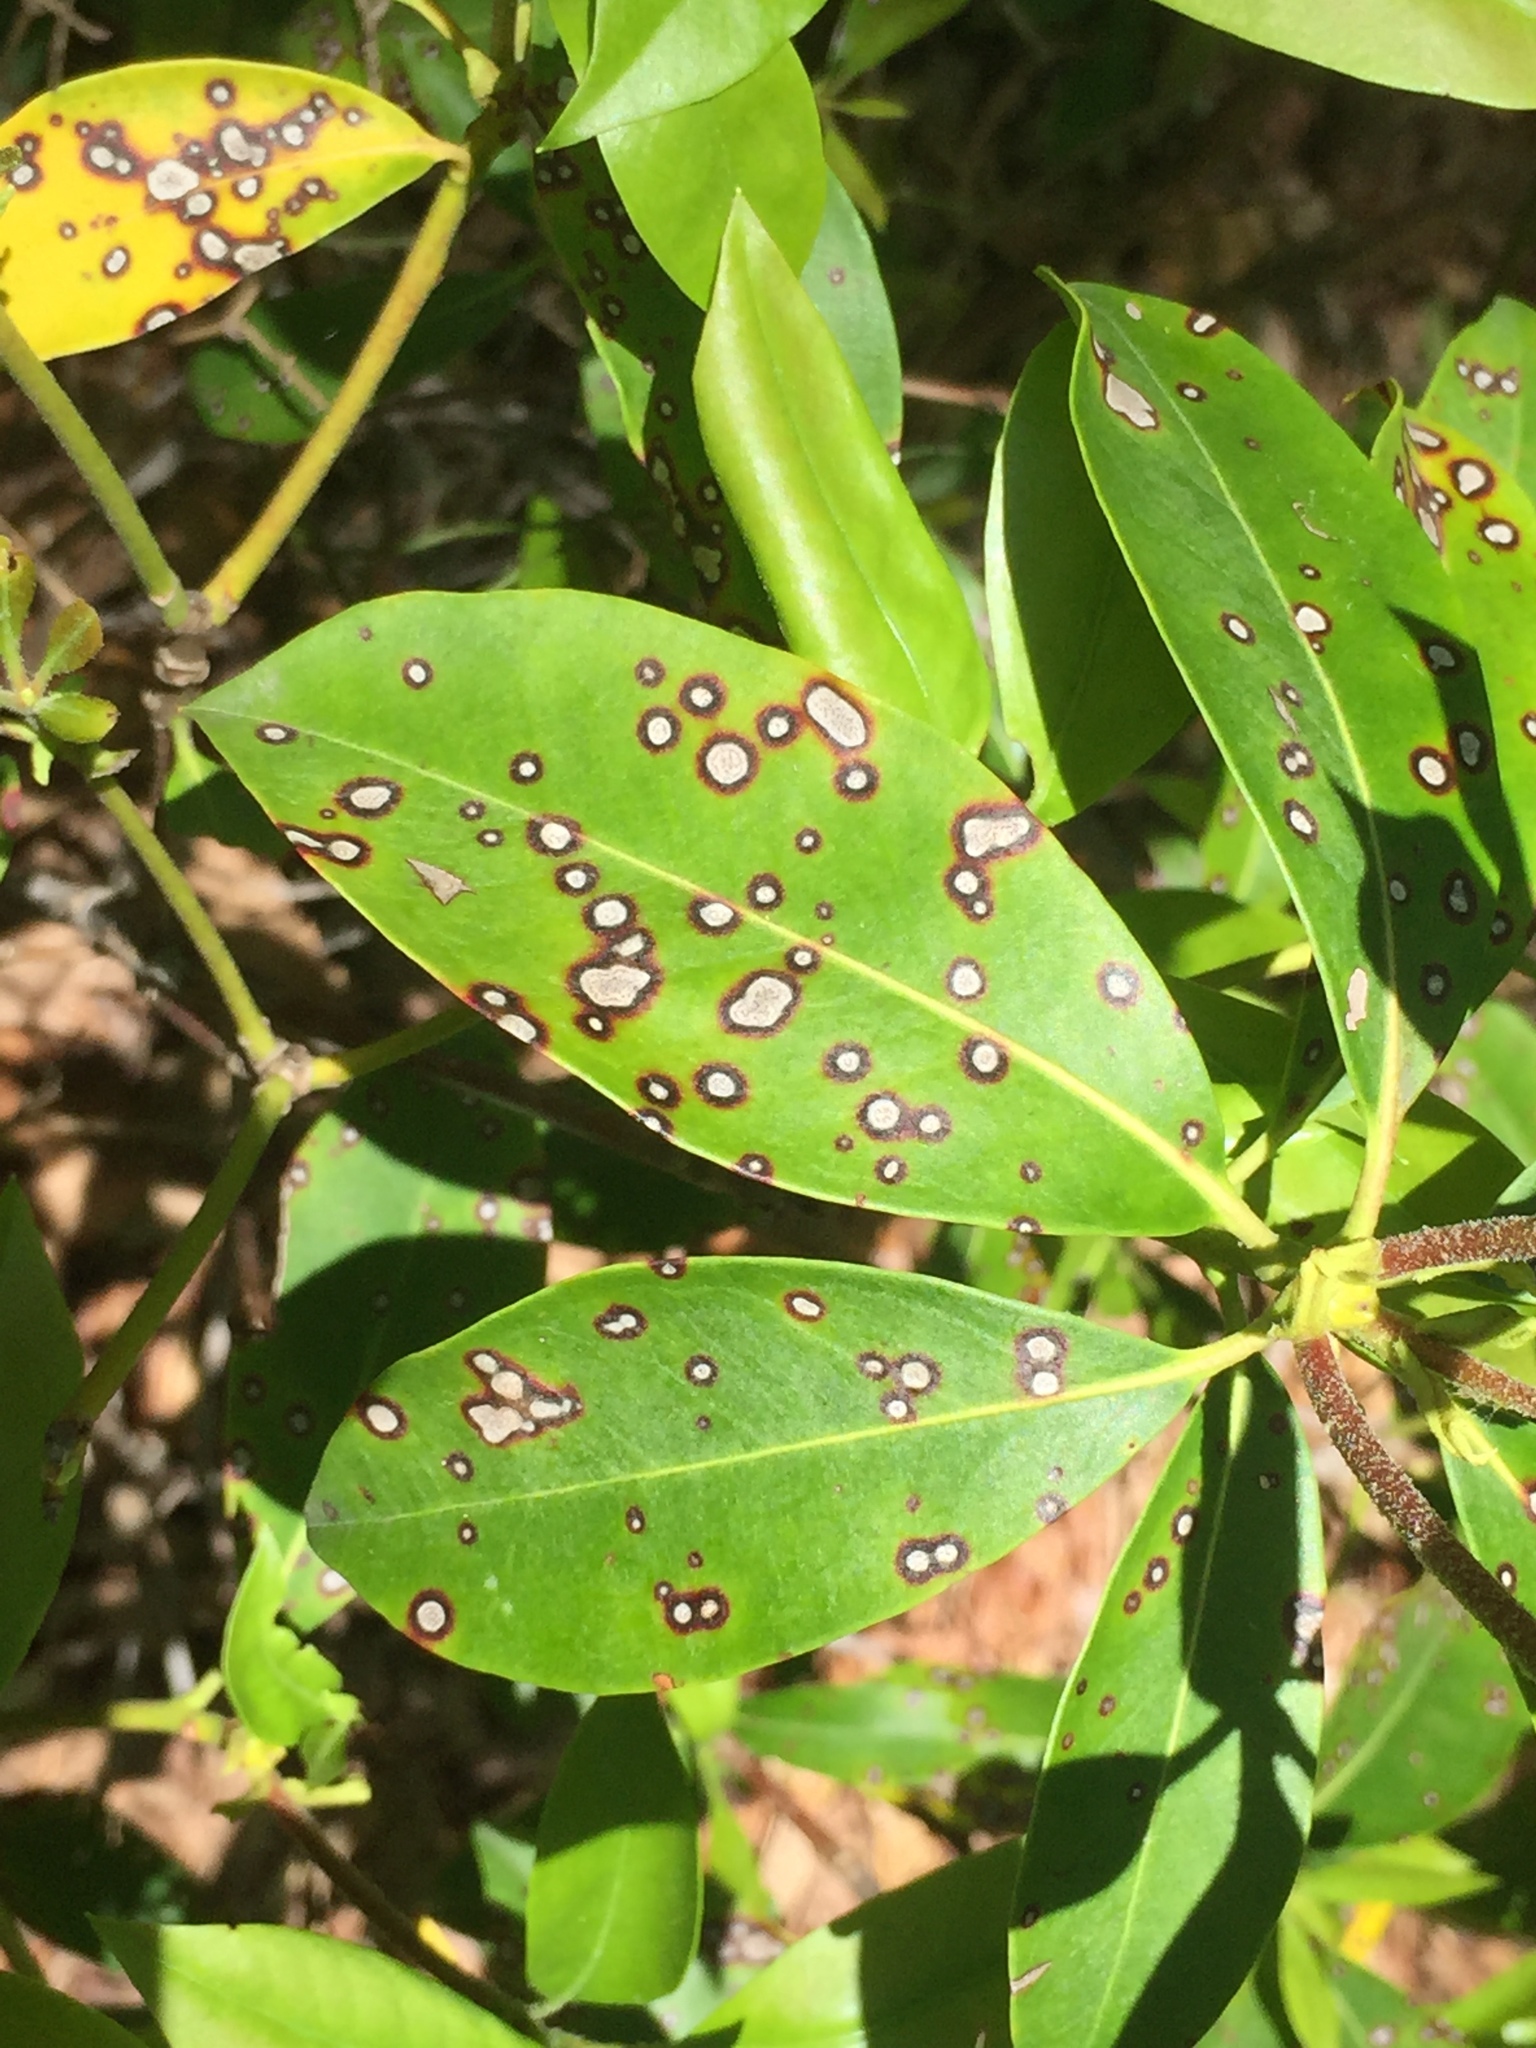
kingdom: Fungi
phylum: Ascomycota
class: Dothideomycetes
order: Mycosphaerellales
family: Mycosphaerellaceae
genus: Mycosphaerella
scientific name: Mycosphaerella colorata
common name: Mountain laurel leaf spot
